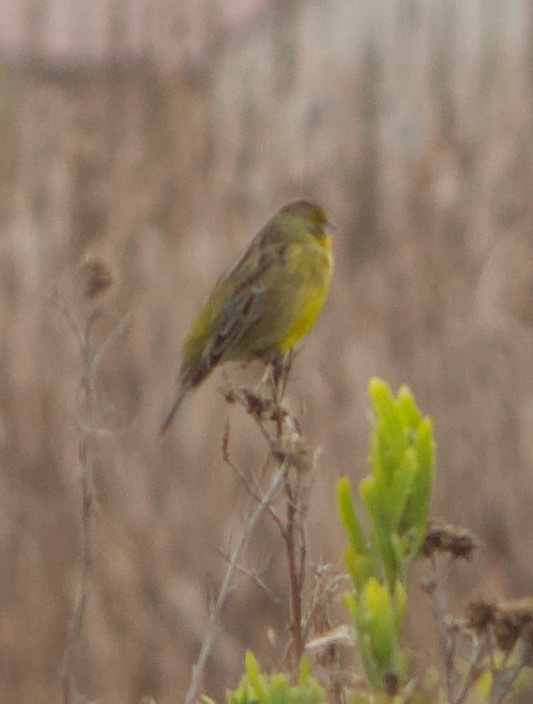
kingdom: Animalia
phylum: Chordata
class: Aves
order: Passeriformes
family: Thraupidae
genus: Sicalis
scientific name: Sicalis luteola
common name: Grassland yellow-finch
